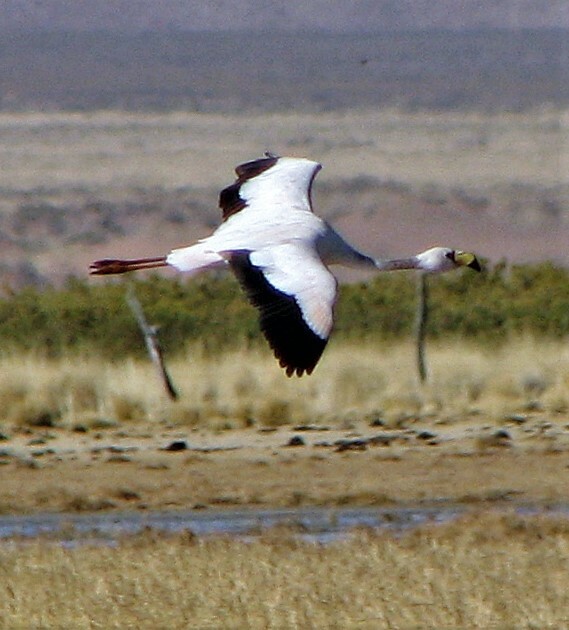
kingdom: Animalia
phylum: Chordata
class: Aves
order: Phoenicopteriformes
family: Phoenicopteridae
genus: Phoenicoparrus
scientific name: Phoenicoparrus jamesi
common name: James's flamingo
